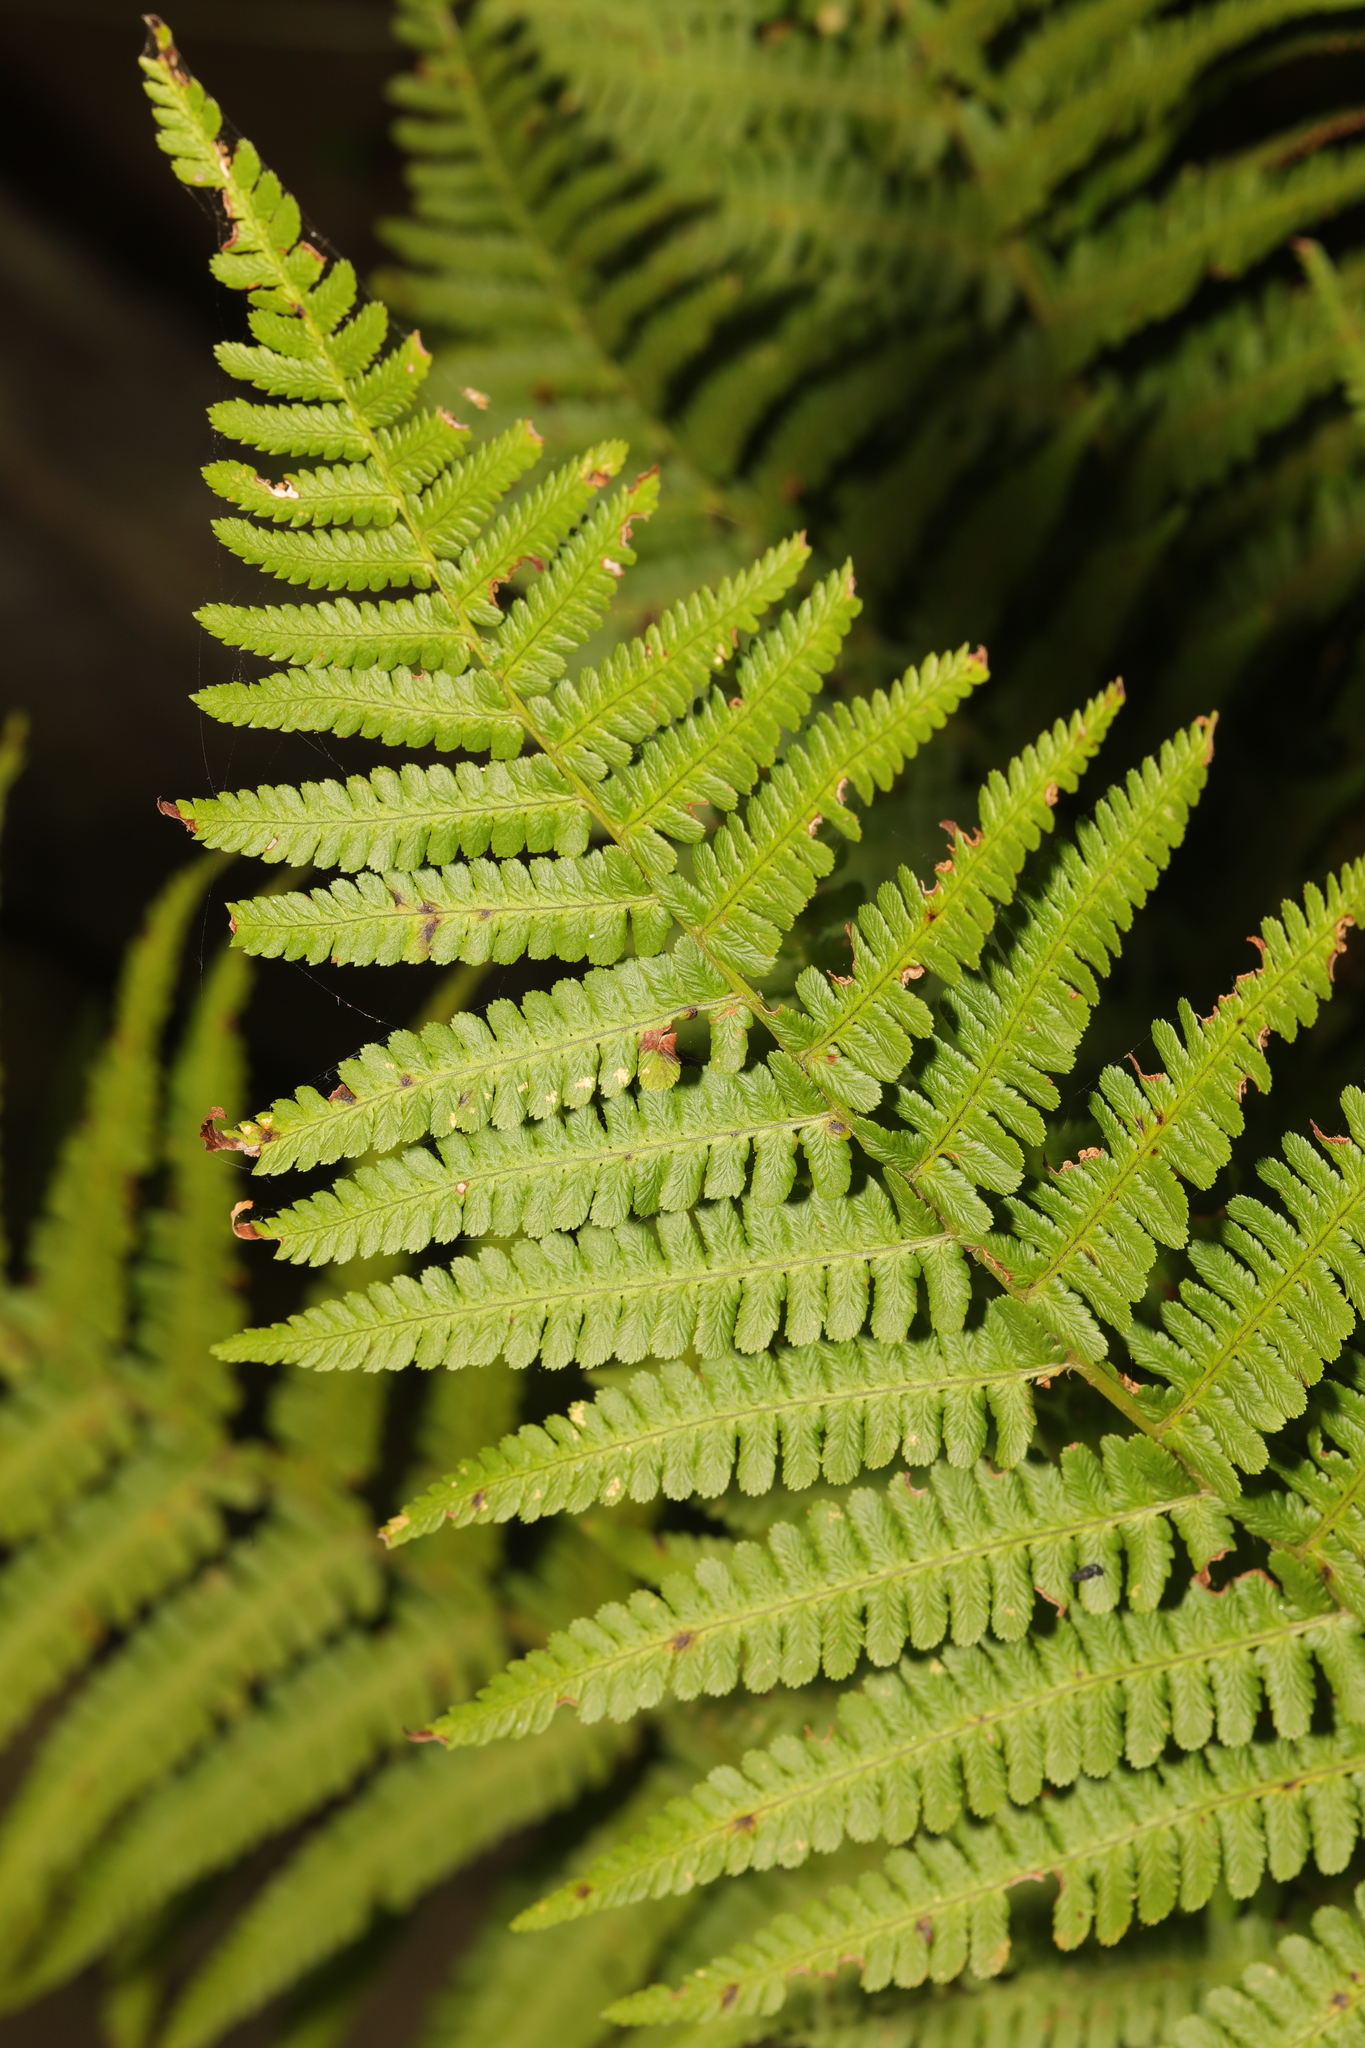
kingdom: Plantae
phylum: Tracheophyta
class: Polypodiopsida
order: Polypodiales
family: Dryopteridaceae
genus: Dryopteris
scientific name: Dryopteris filix-mas
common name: Male fern
